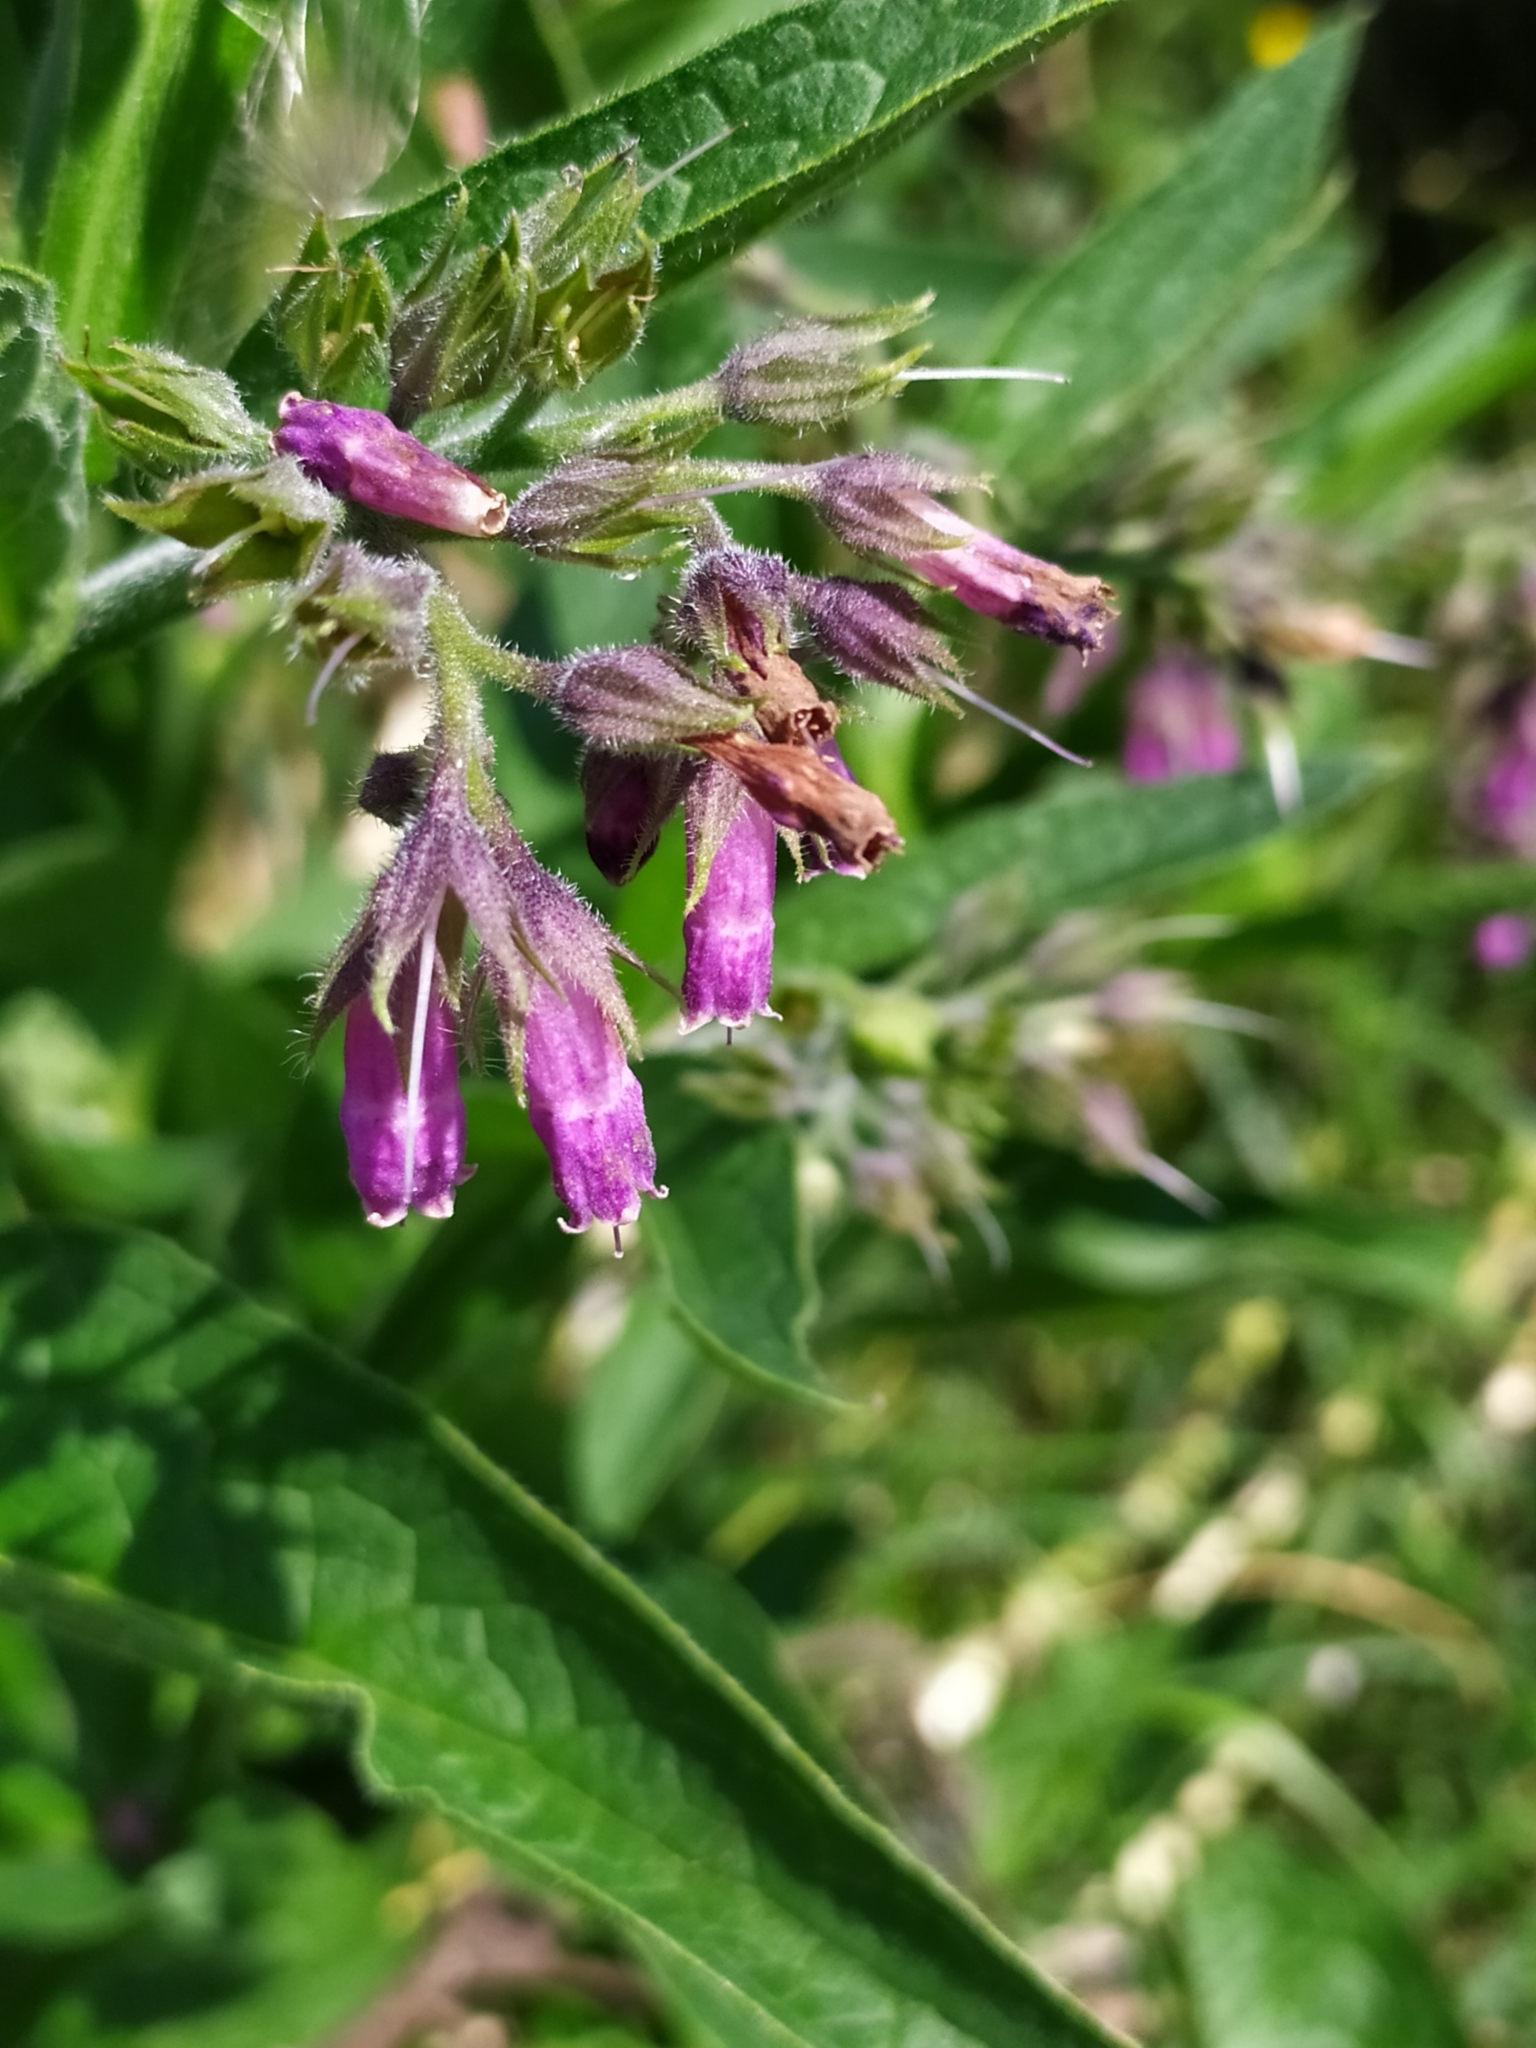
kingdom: Plantae
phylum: Tracheophyta
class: Magnoliopsida
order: Boraginales
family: Boraginaceae
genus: Symphytum
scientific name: Symphytum officinale
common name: Common comfrey
